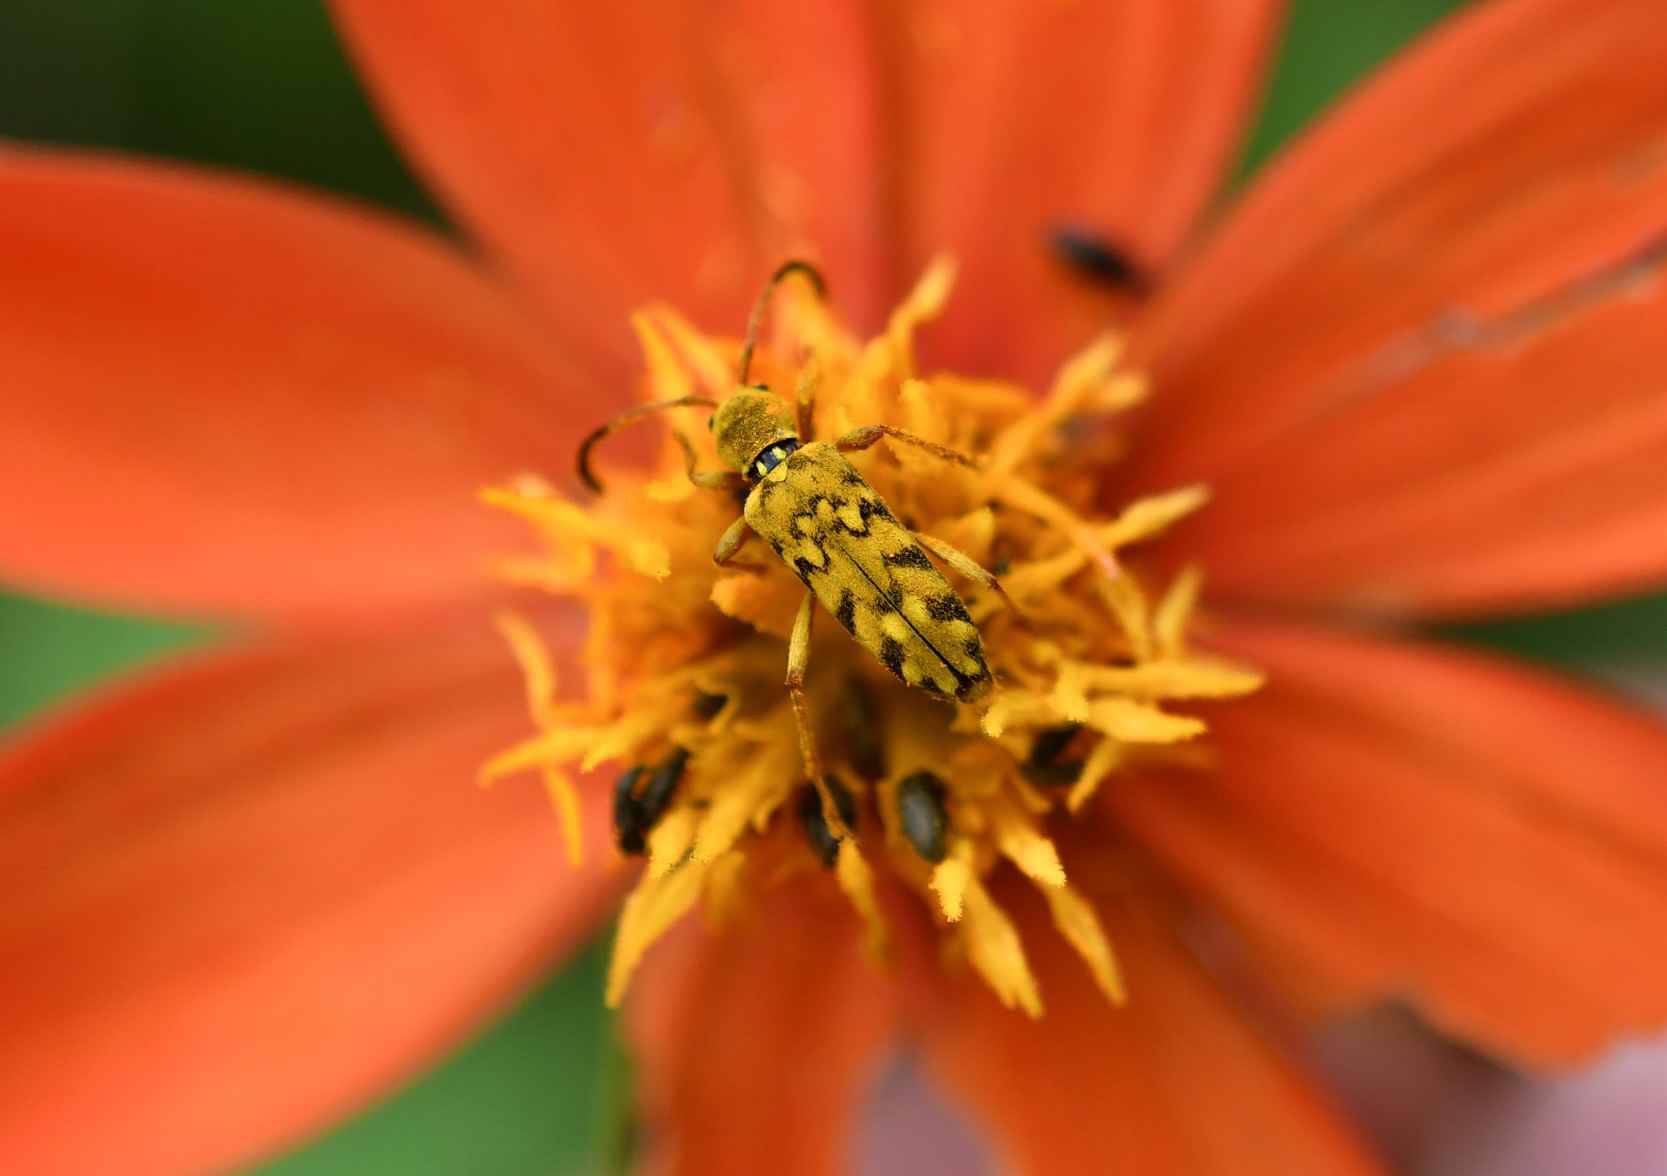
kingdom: Animalia
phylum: Arthropoda
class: Insecta
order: Coleoptera
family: Cerambycidae
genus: Ochraethes
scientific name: Ochraethes pollinosus
